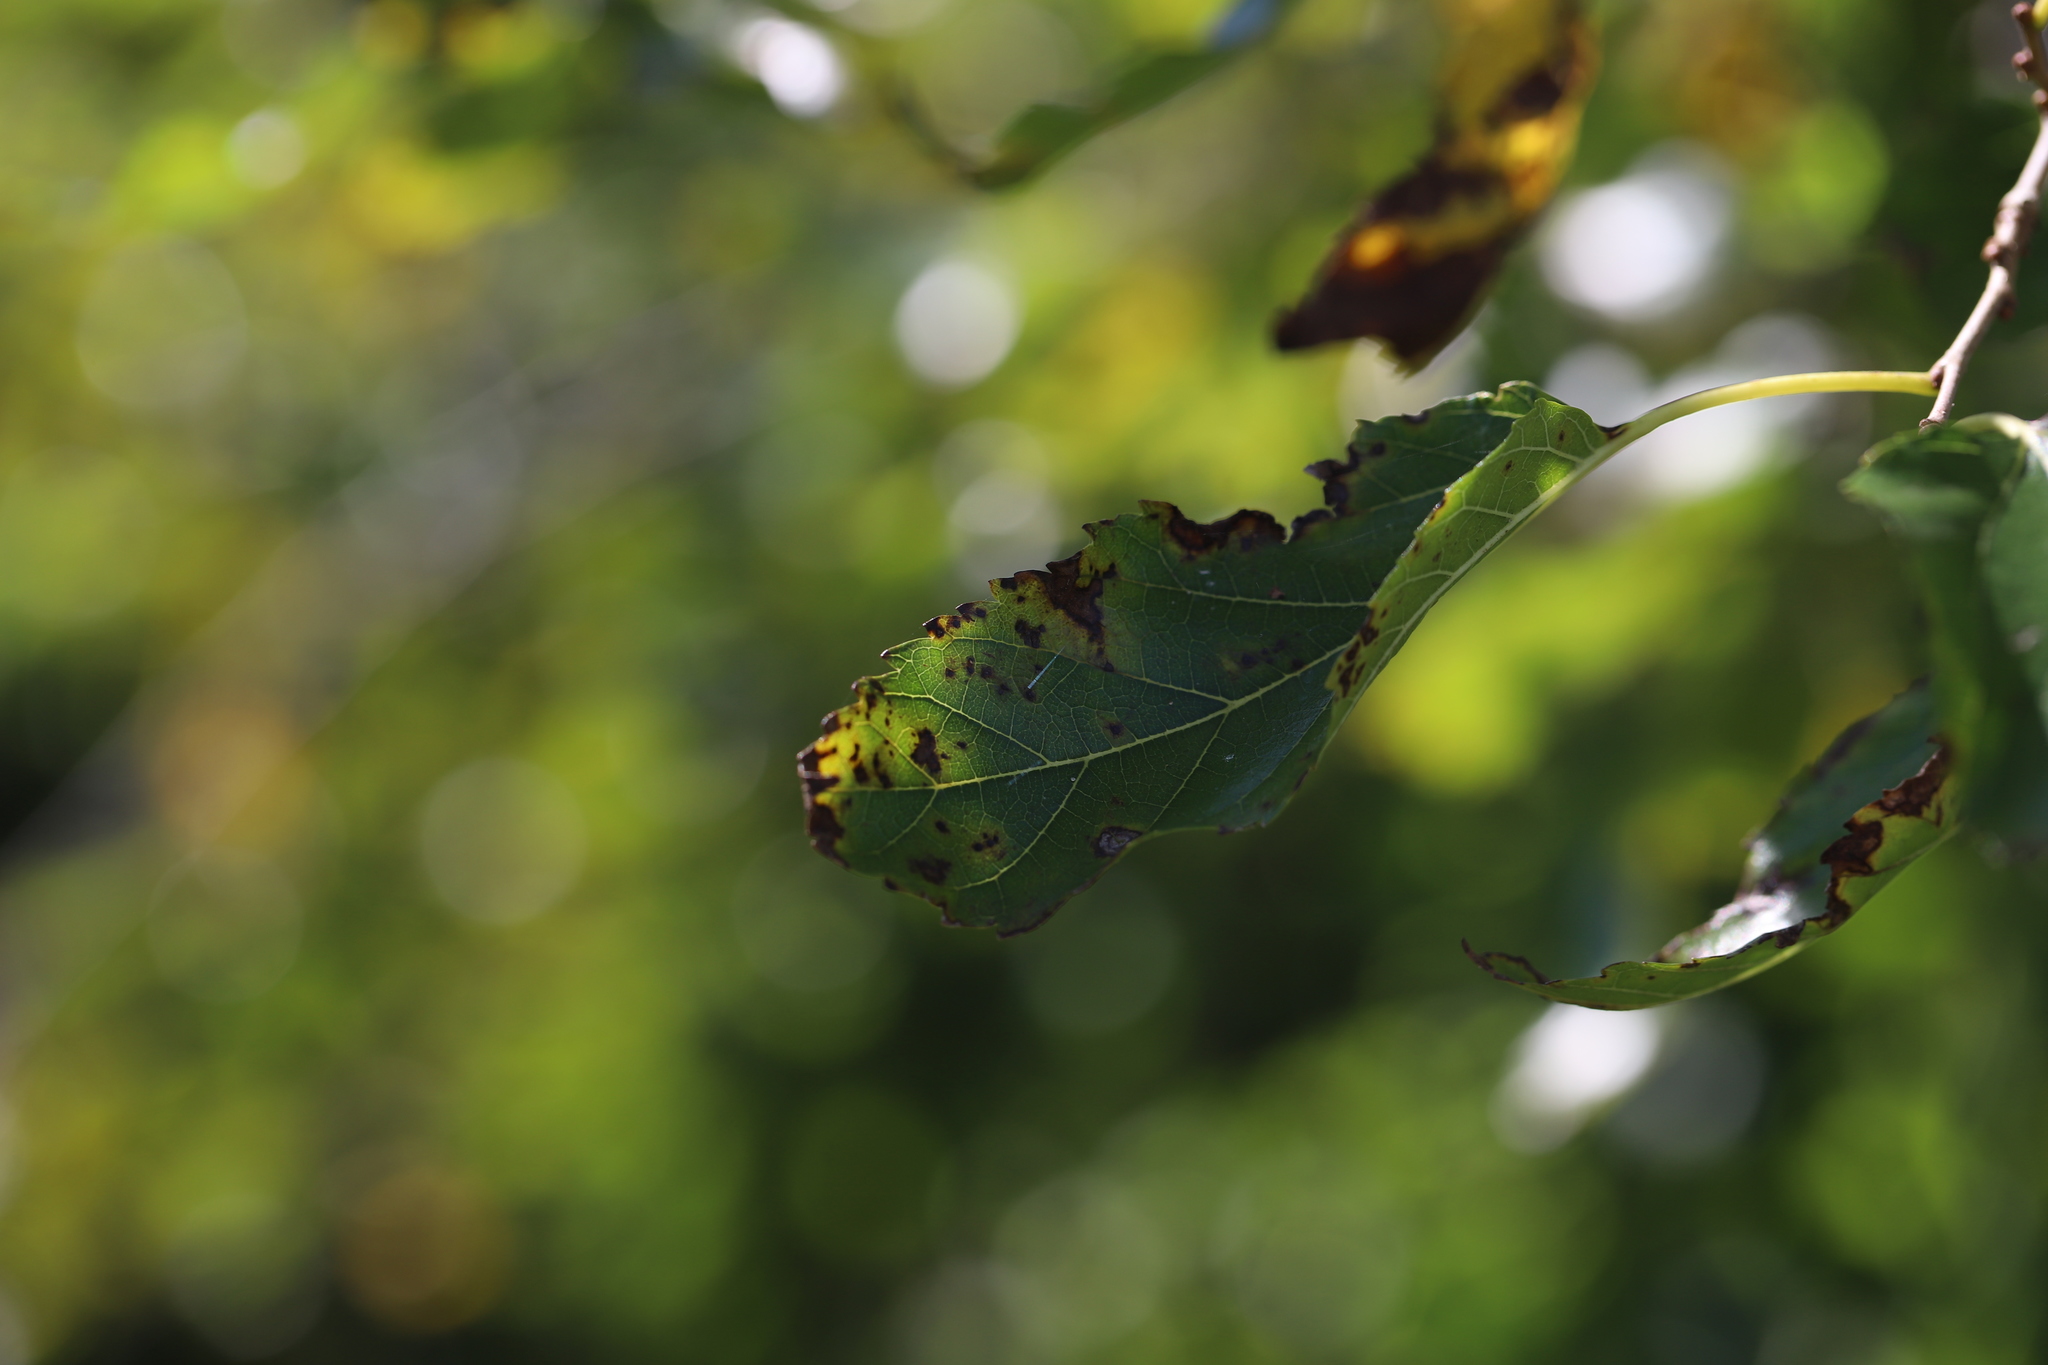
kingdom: Fungi
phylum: Ascomycota
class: Dothideomycetes
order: Mycosphaerellales
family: Mycosphaerellaceae
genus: Cercospora
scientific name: Cercospora moricola
